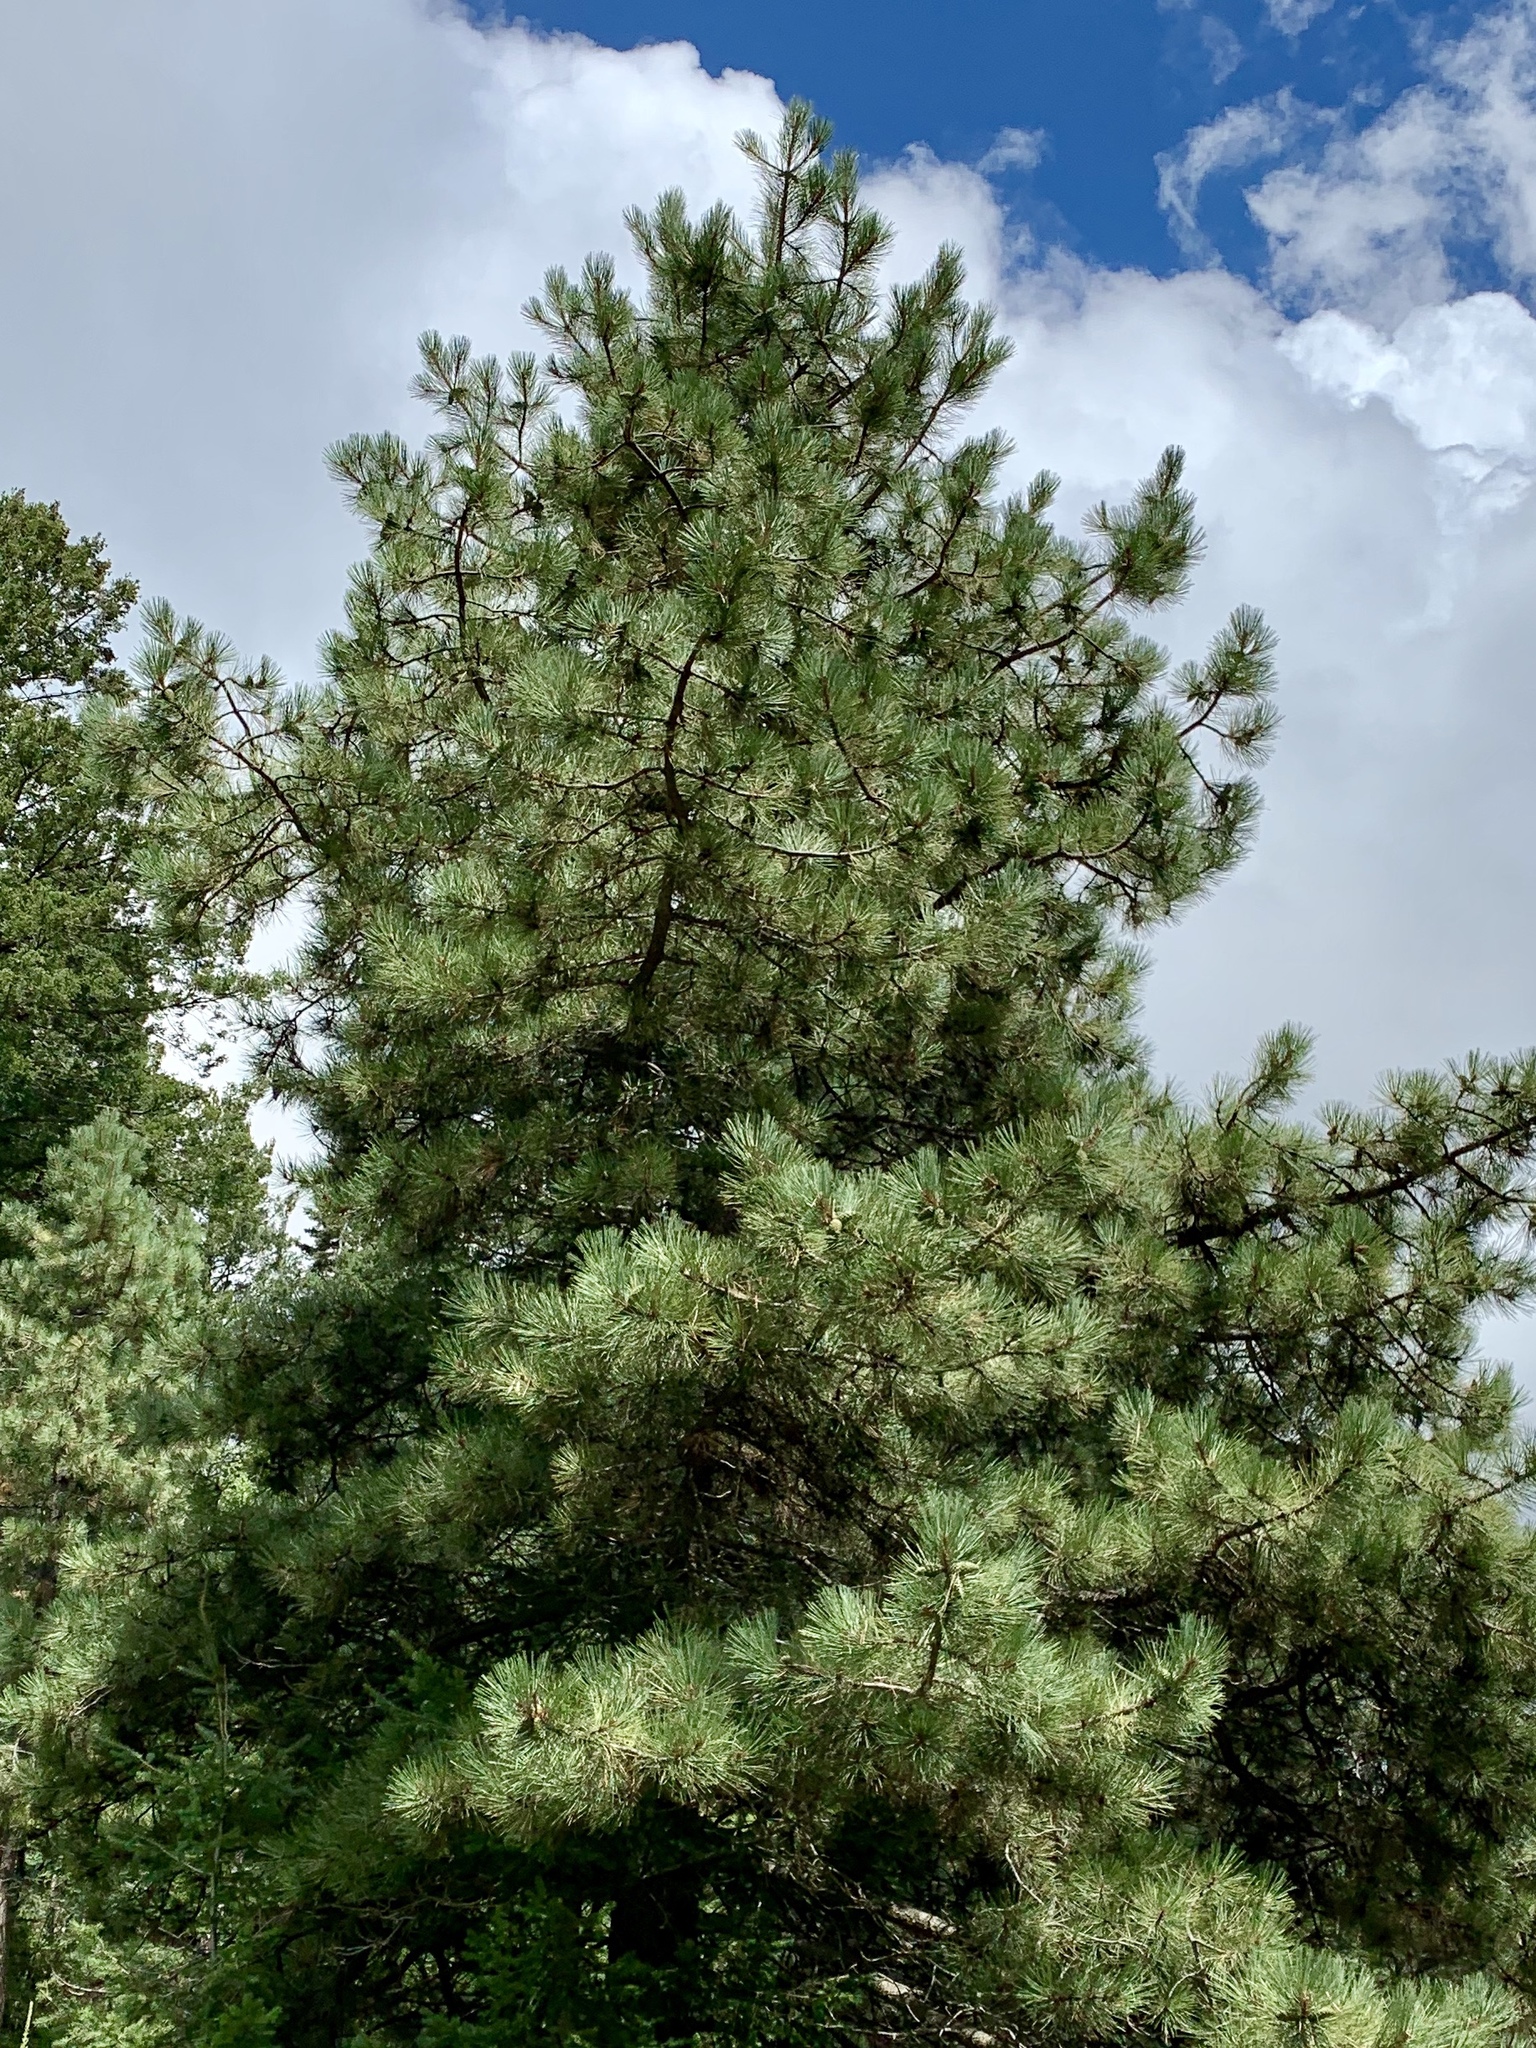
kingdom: Plantae
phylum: Tracheophyta
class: Pinopsida
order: Pinales
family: Pinaceae
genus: Pinus
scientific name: Pinus ponderosa
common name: Western yellow-pine
